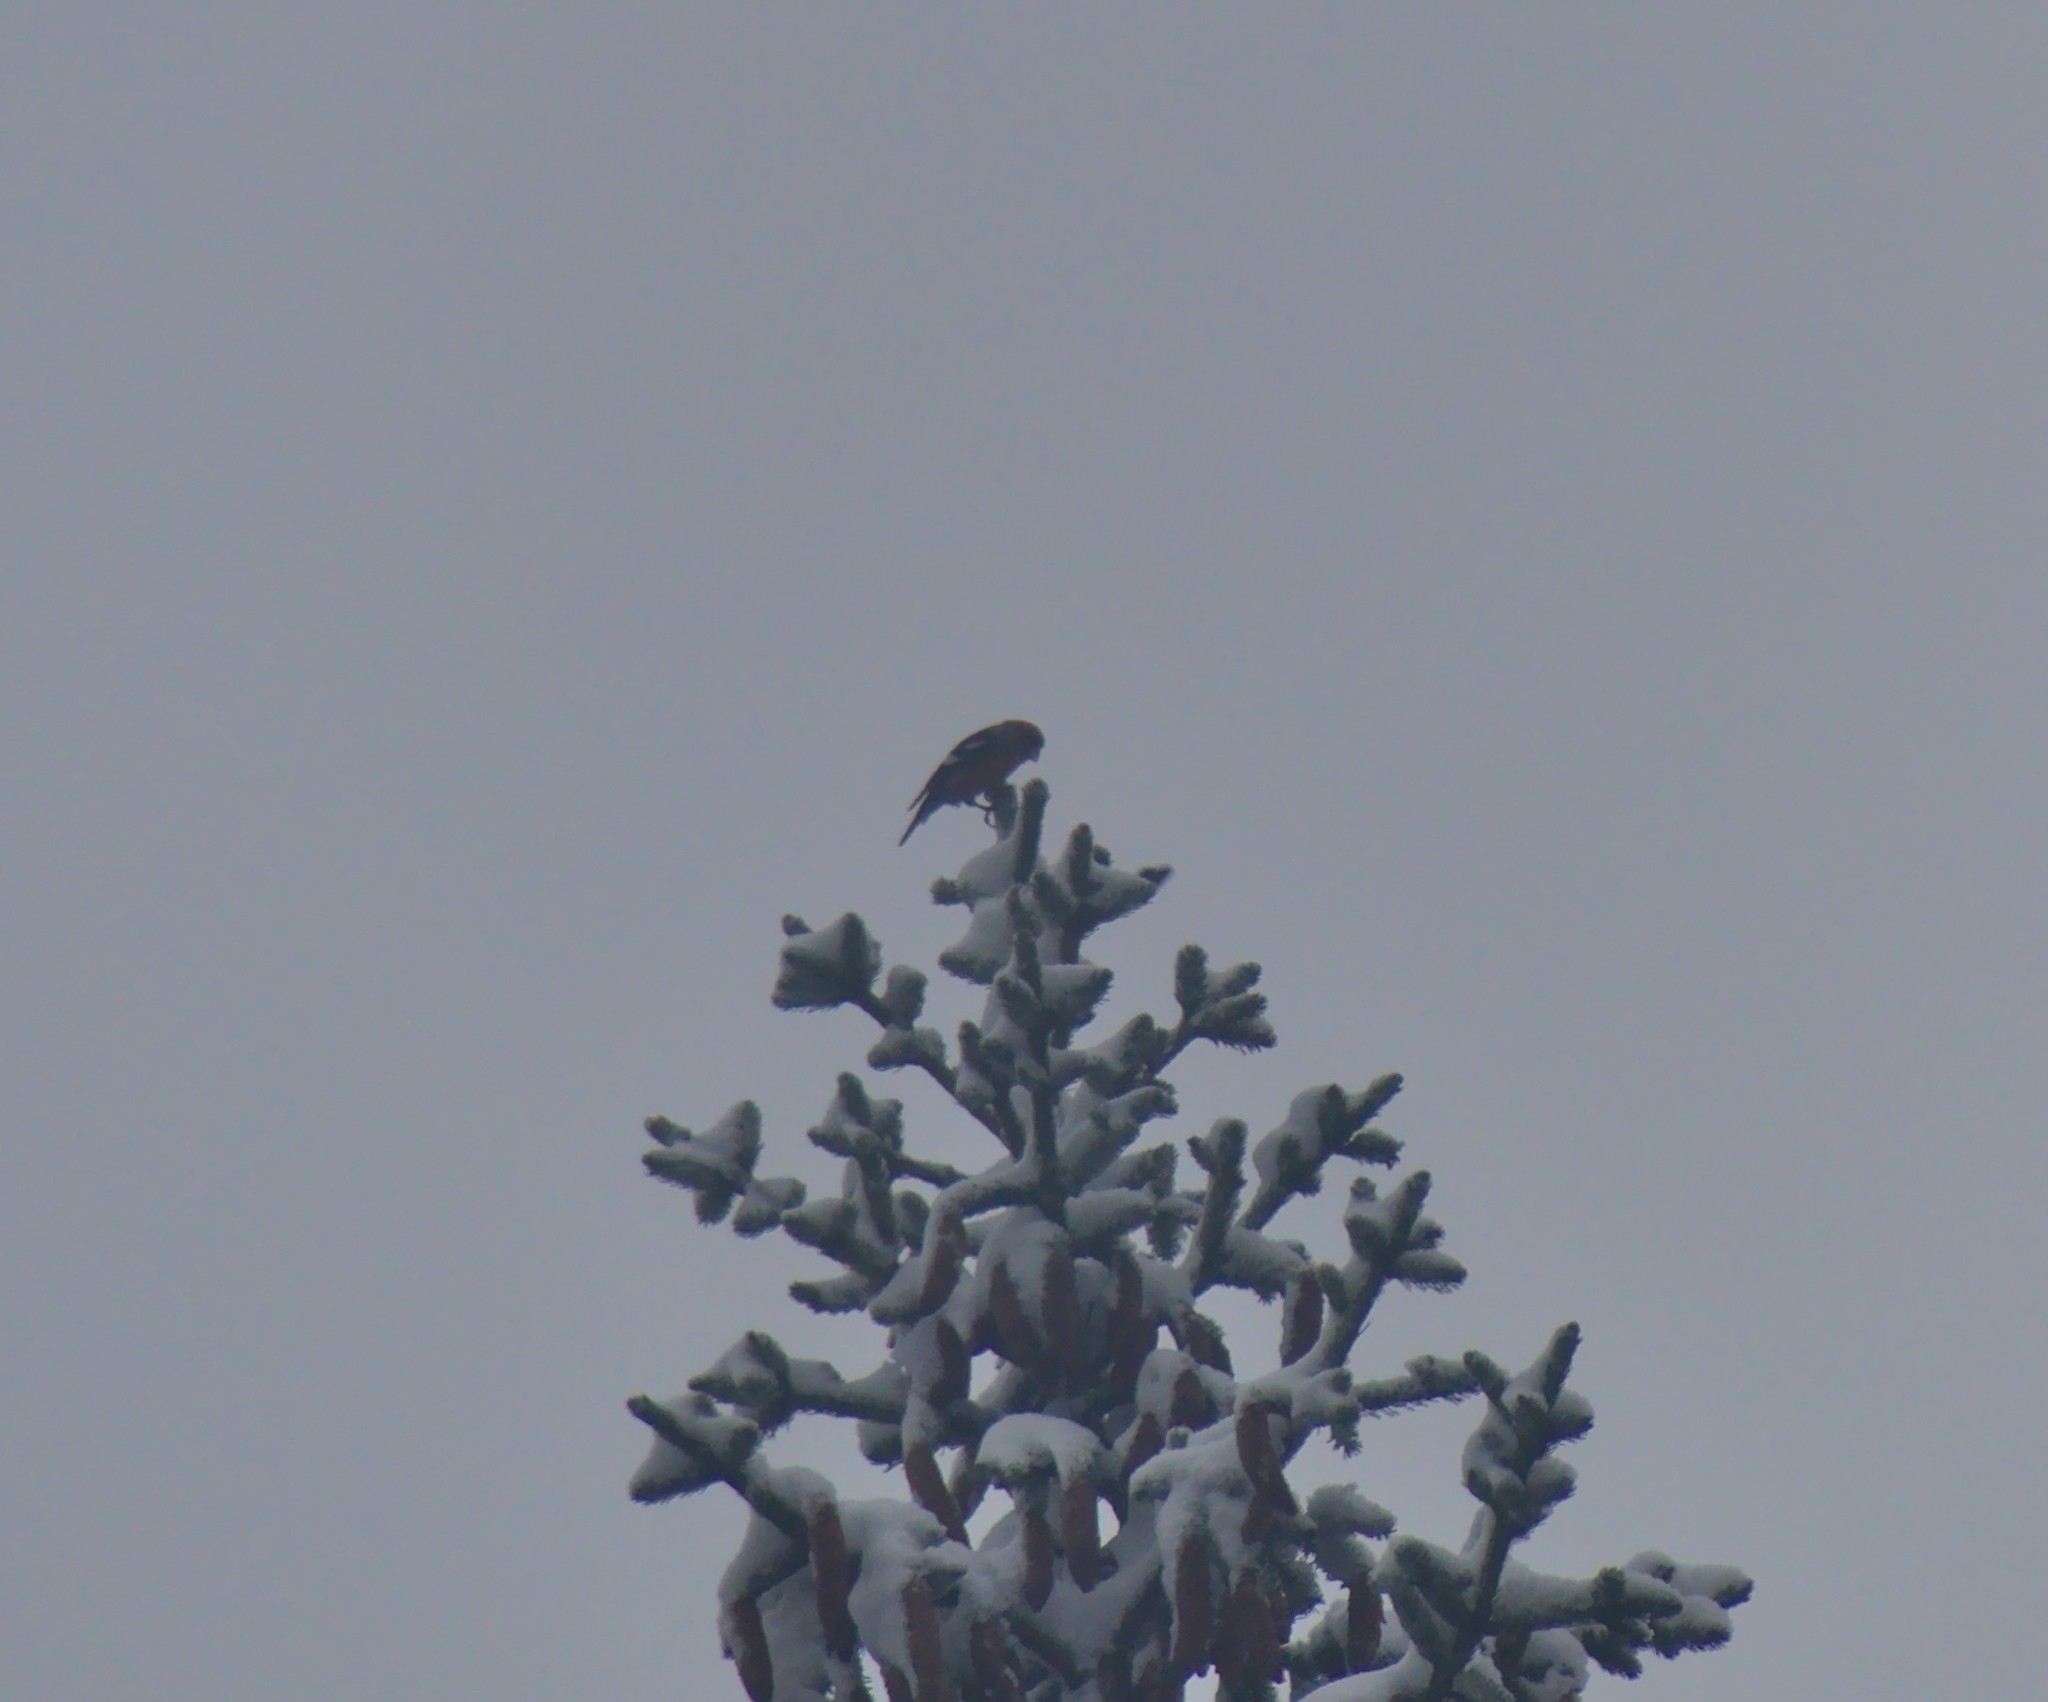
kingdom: Animalia
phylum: Chordata
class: Aves
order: Passeriformes
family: Fringillidae
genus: Loxia
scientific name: Loxia leucoptera
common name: Two-barred crossbill
